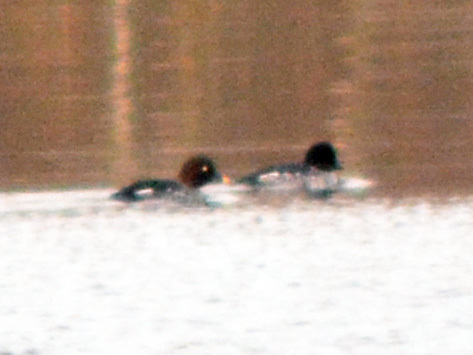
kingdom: Animalia
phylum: Chordata
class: Aves
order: Anseriformes
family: Anatidae
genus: Bucephala
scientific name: Bucephala clangula
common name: Common goldeneye
